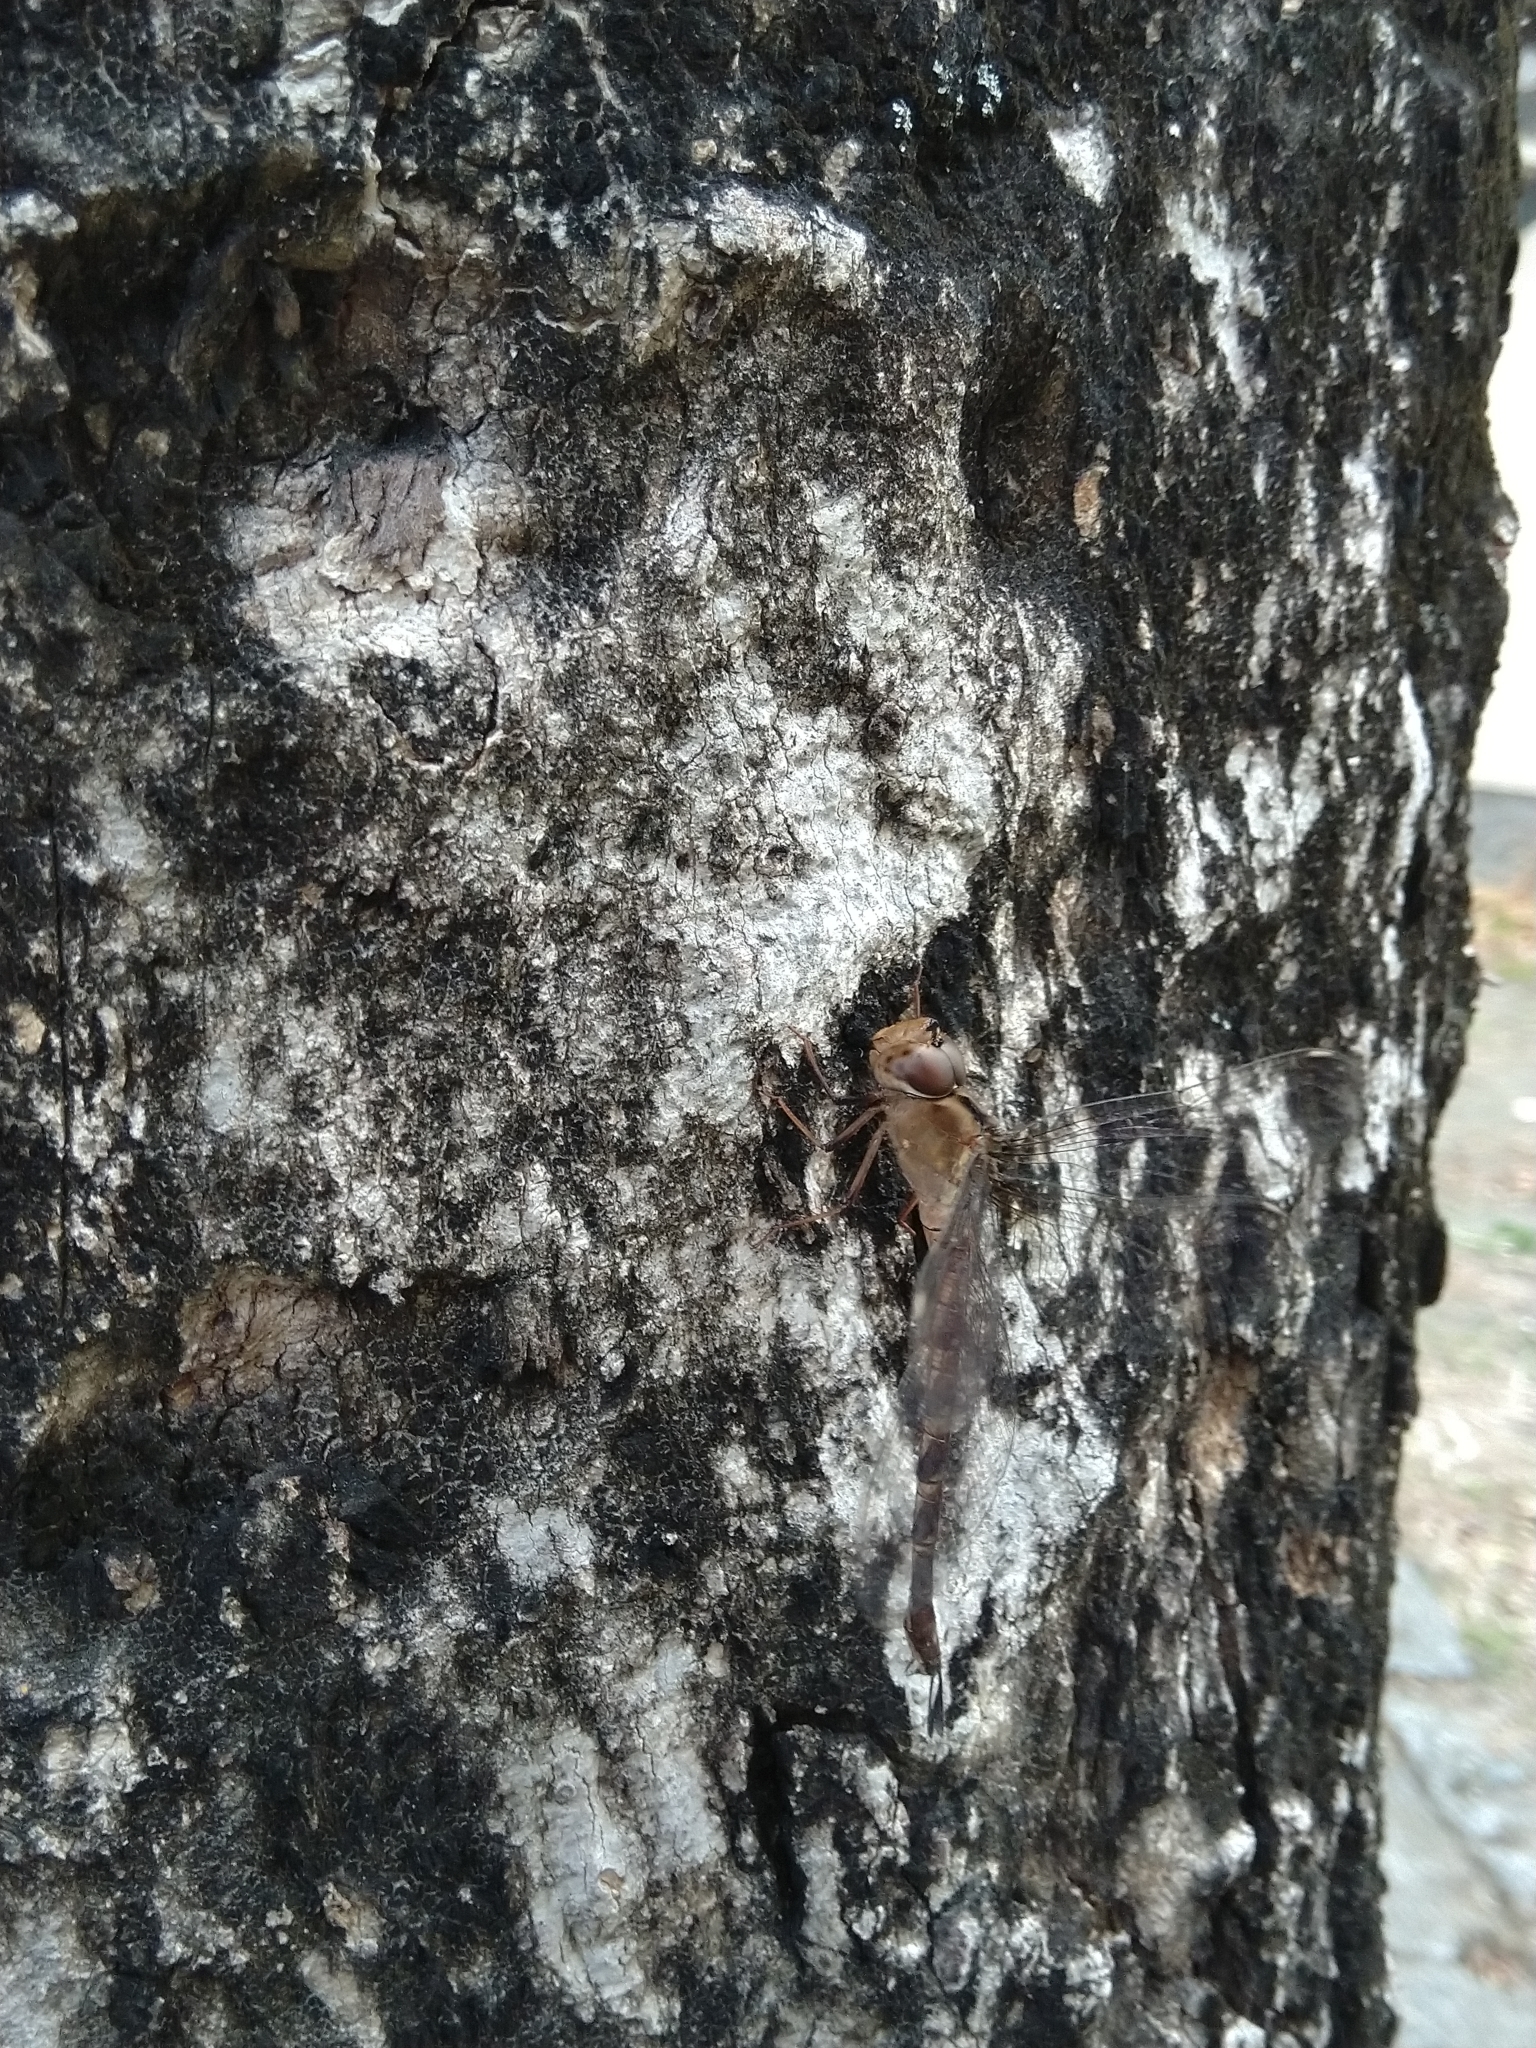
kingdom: Animalia
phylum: Arthropoda
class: Insecta
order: Odonata
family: Aeshnidae
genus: Gynacantha
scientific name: Gynacantha subinterrupta
